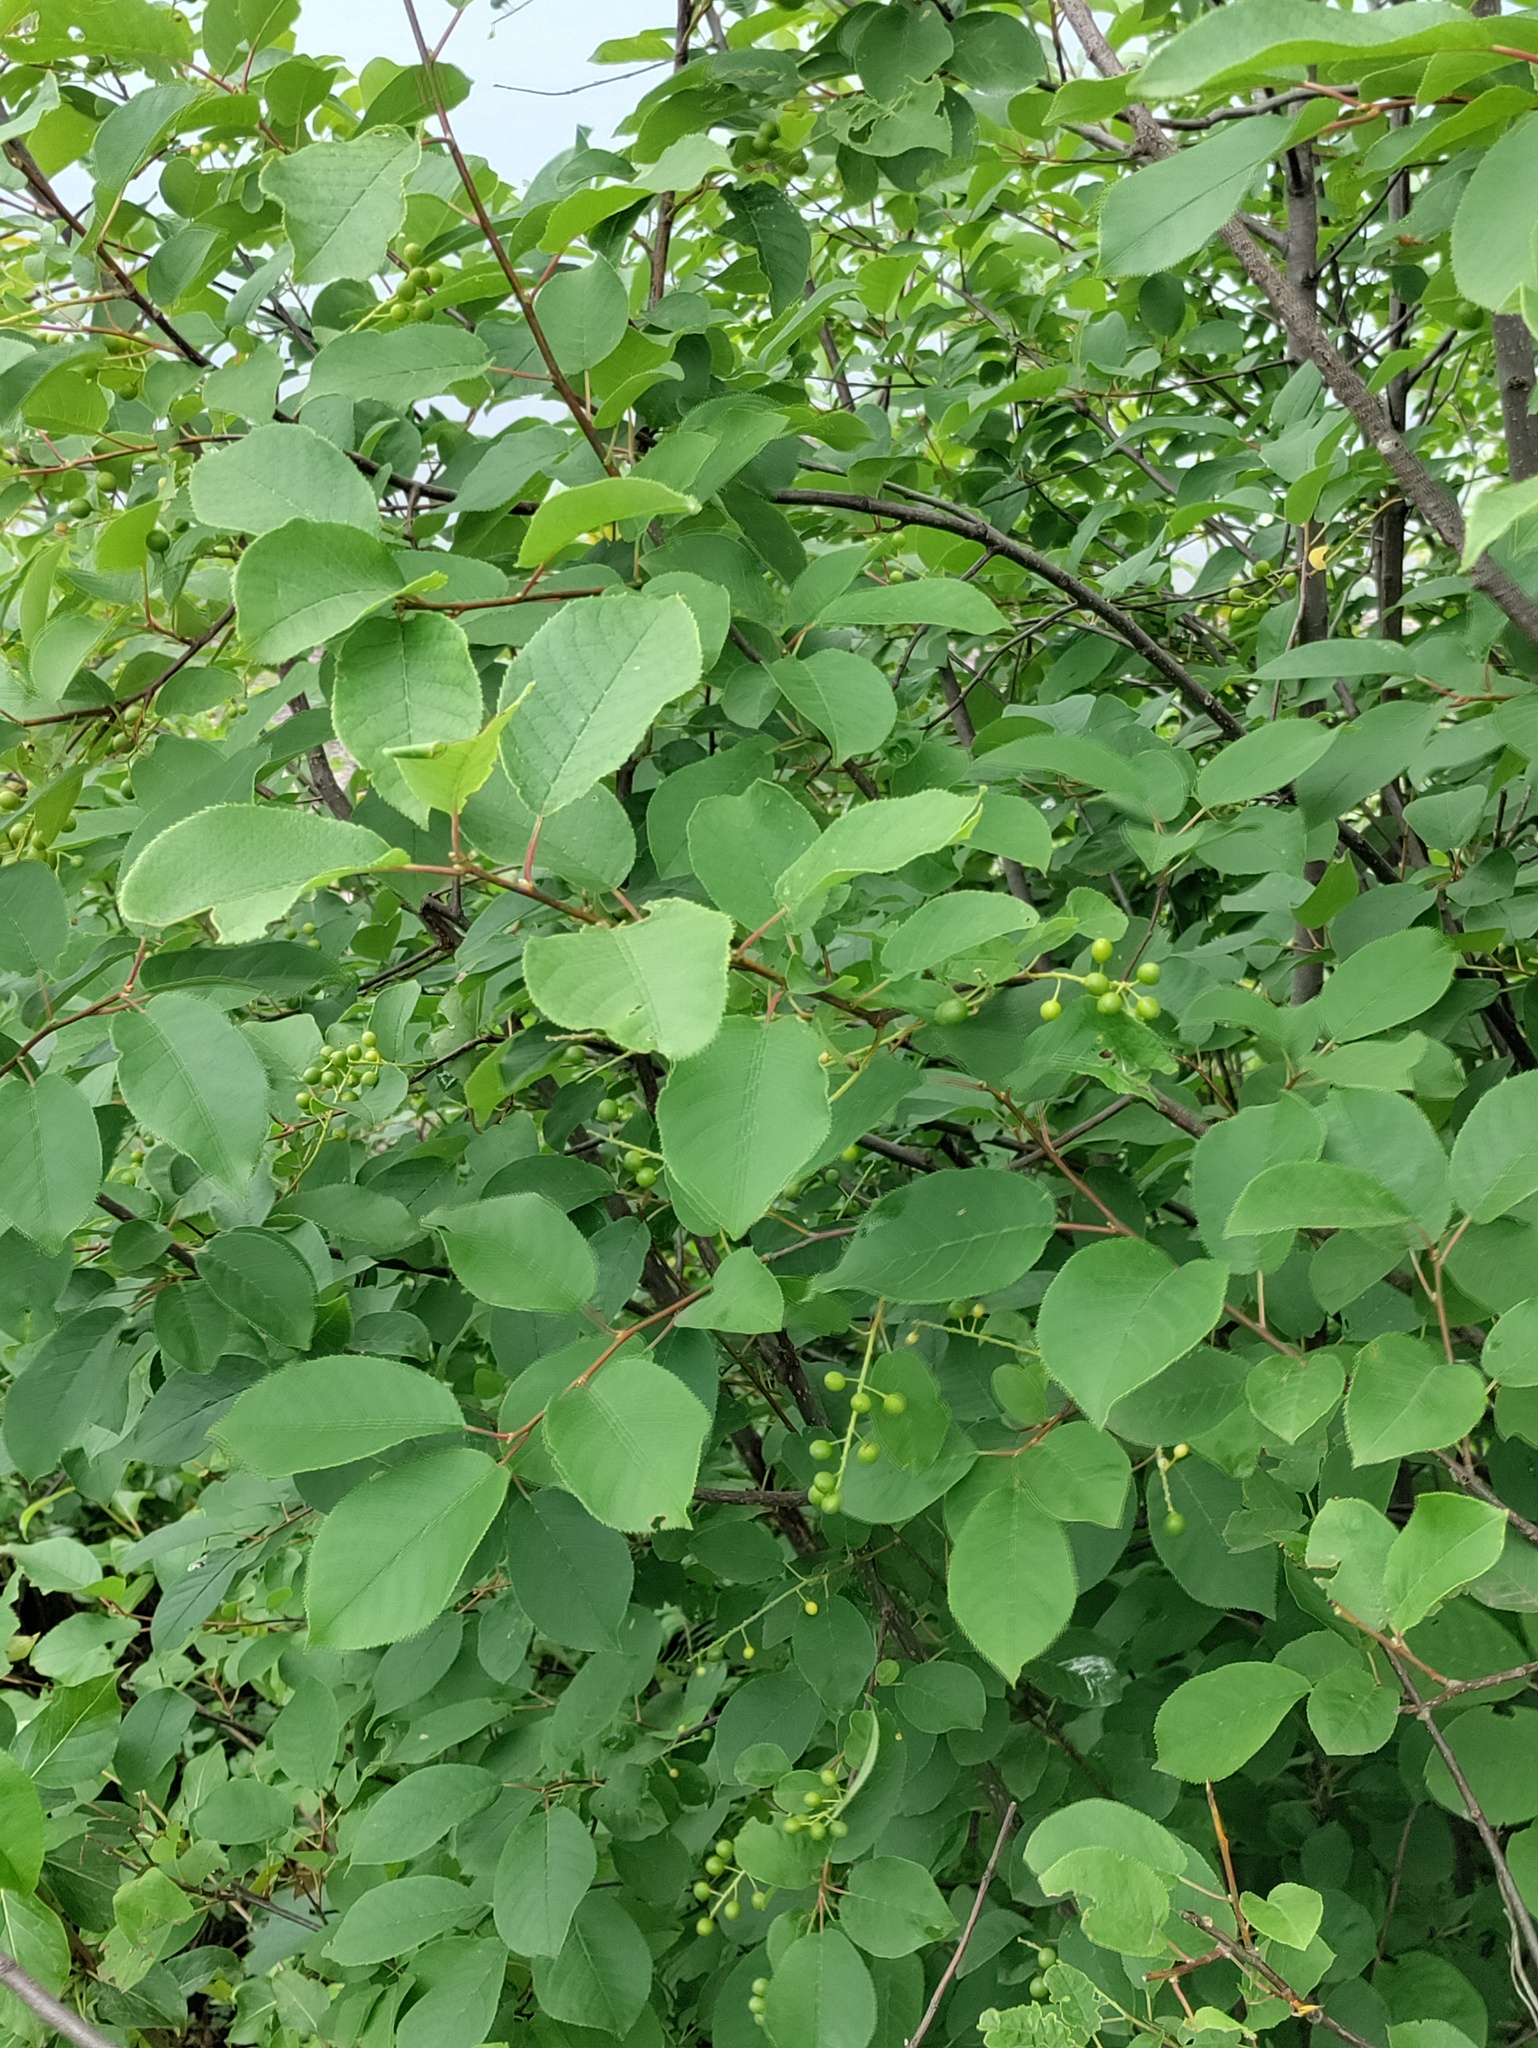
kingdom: Plantae
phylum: Tracheophyta
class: Magnoliopsida
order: Rosales
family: Rosaceae
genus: Prunus
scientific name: Prunus virginiana
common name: Chokecherry
